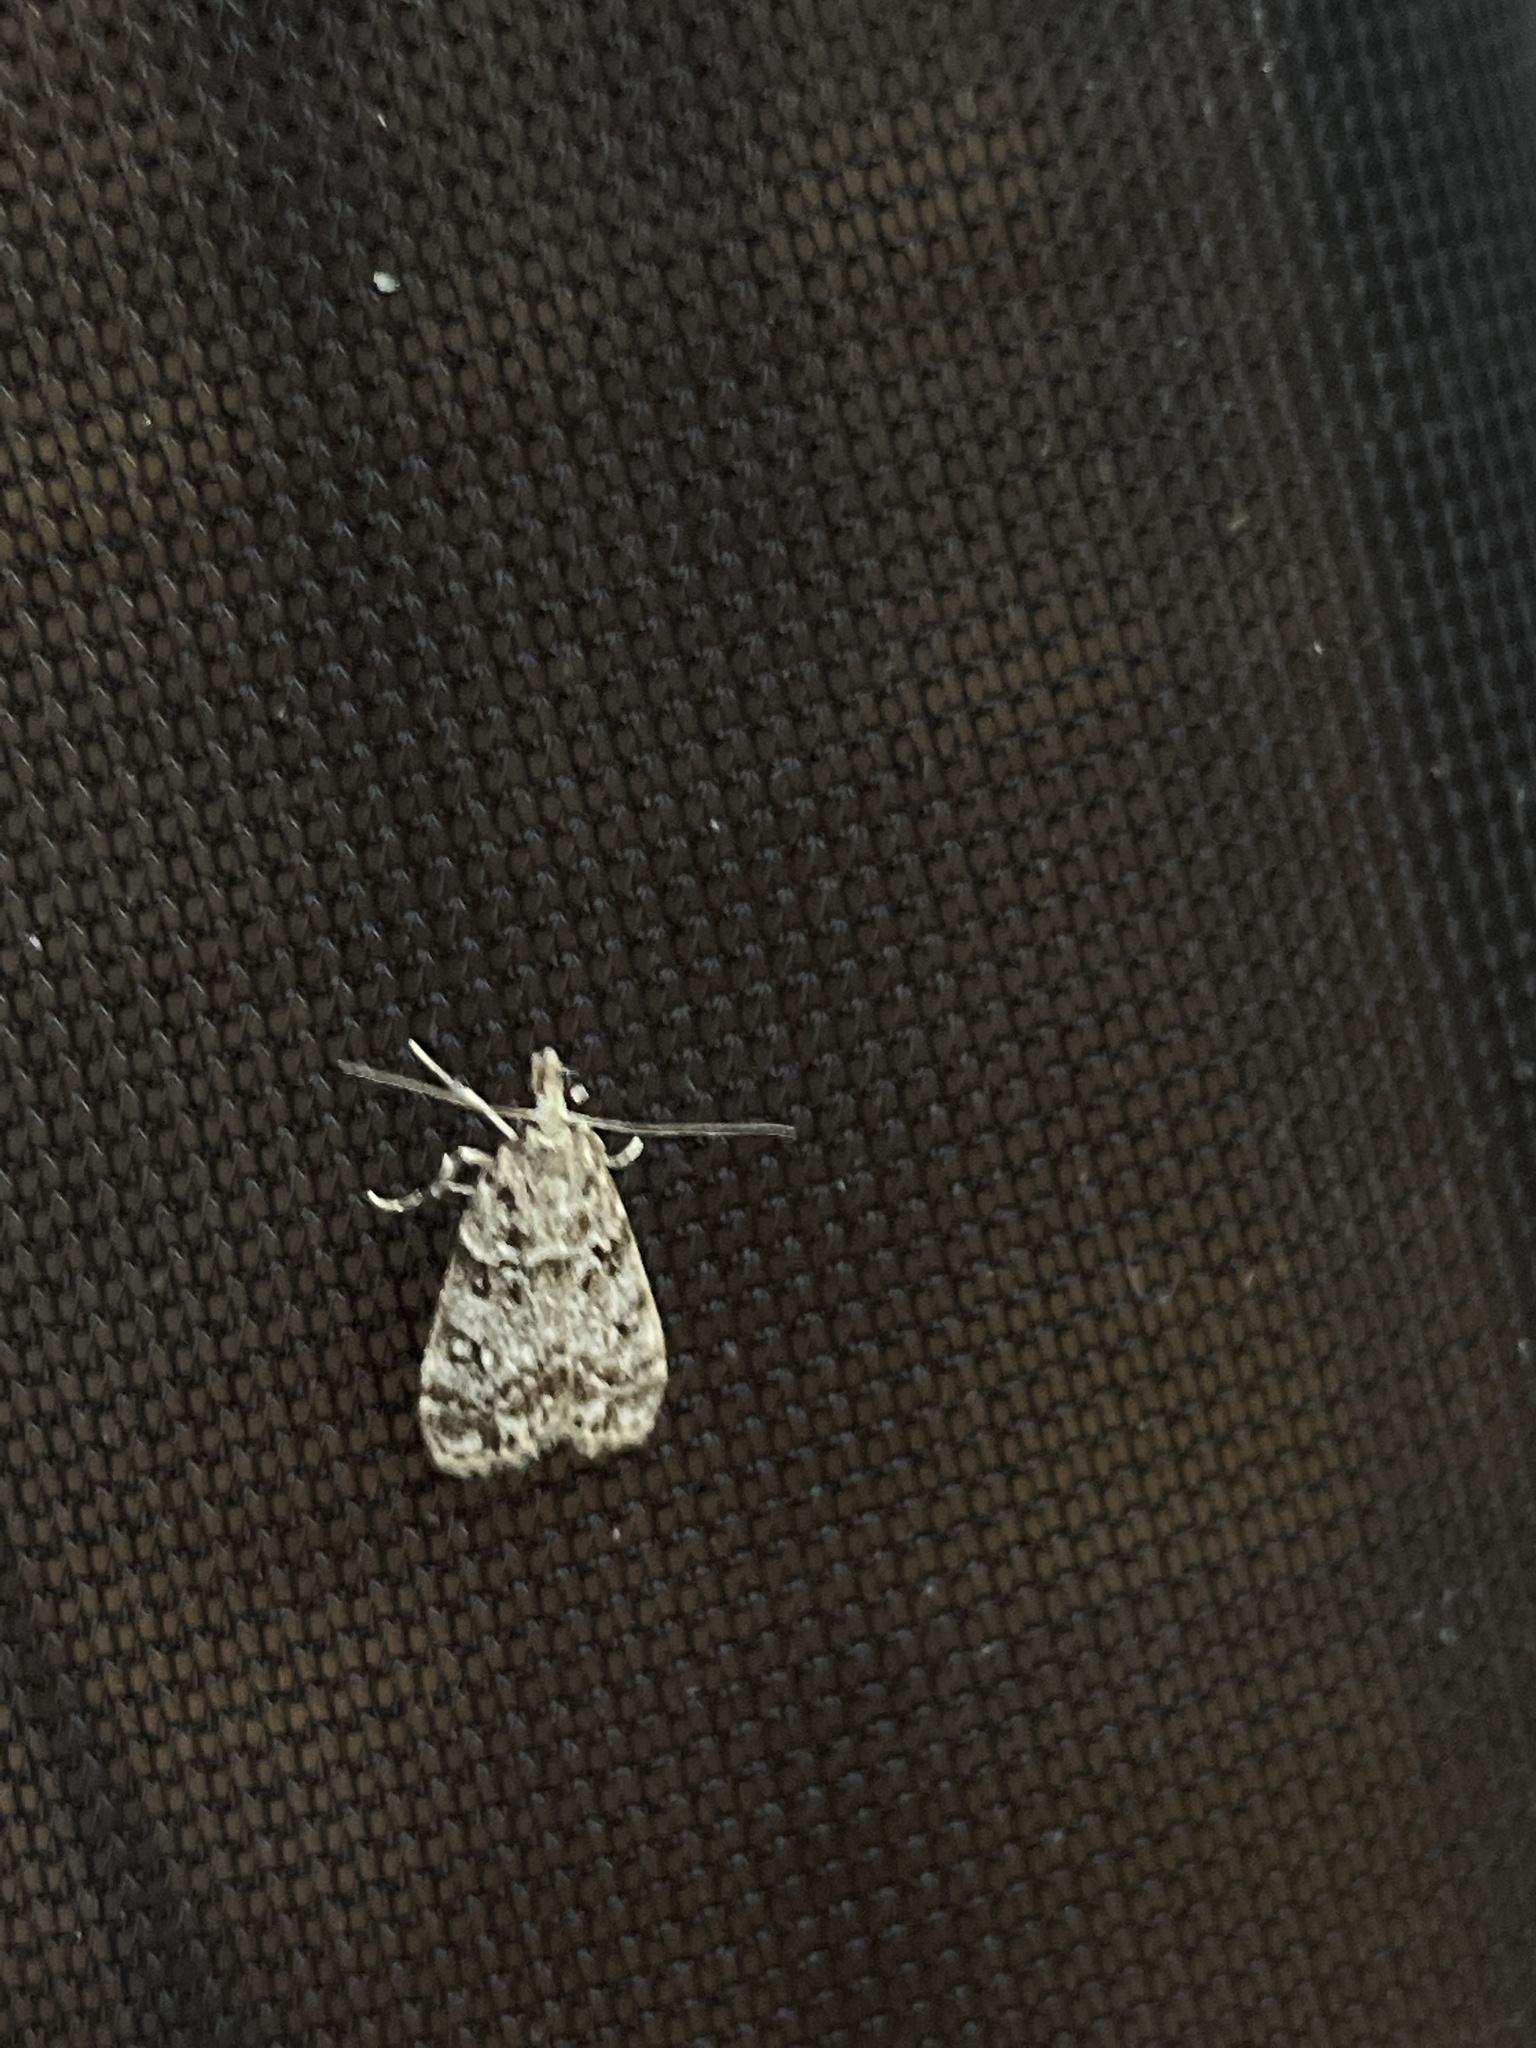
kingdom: Animalia
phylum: Arthropoda
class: Insecta
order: Lepidoptera
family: Crambidae
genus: Eudonia
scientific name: Eudonia lacustrata
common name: Little grey
